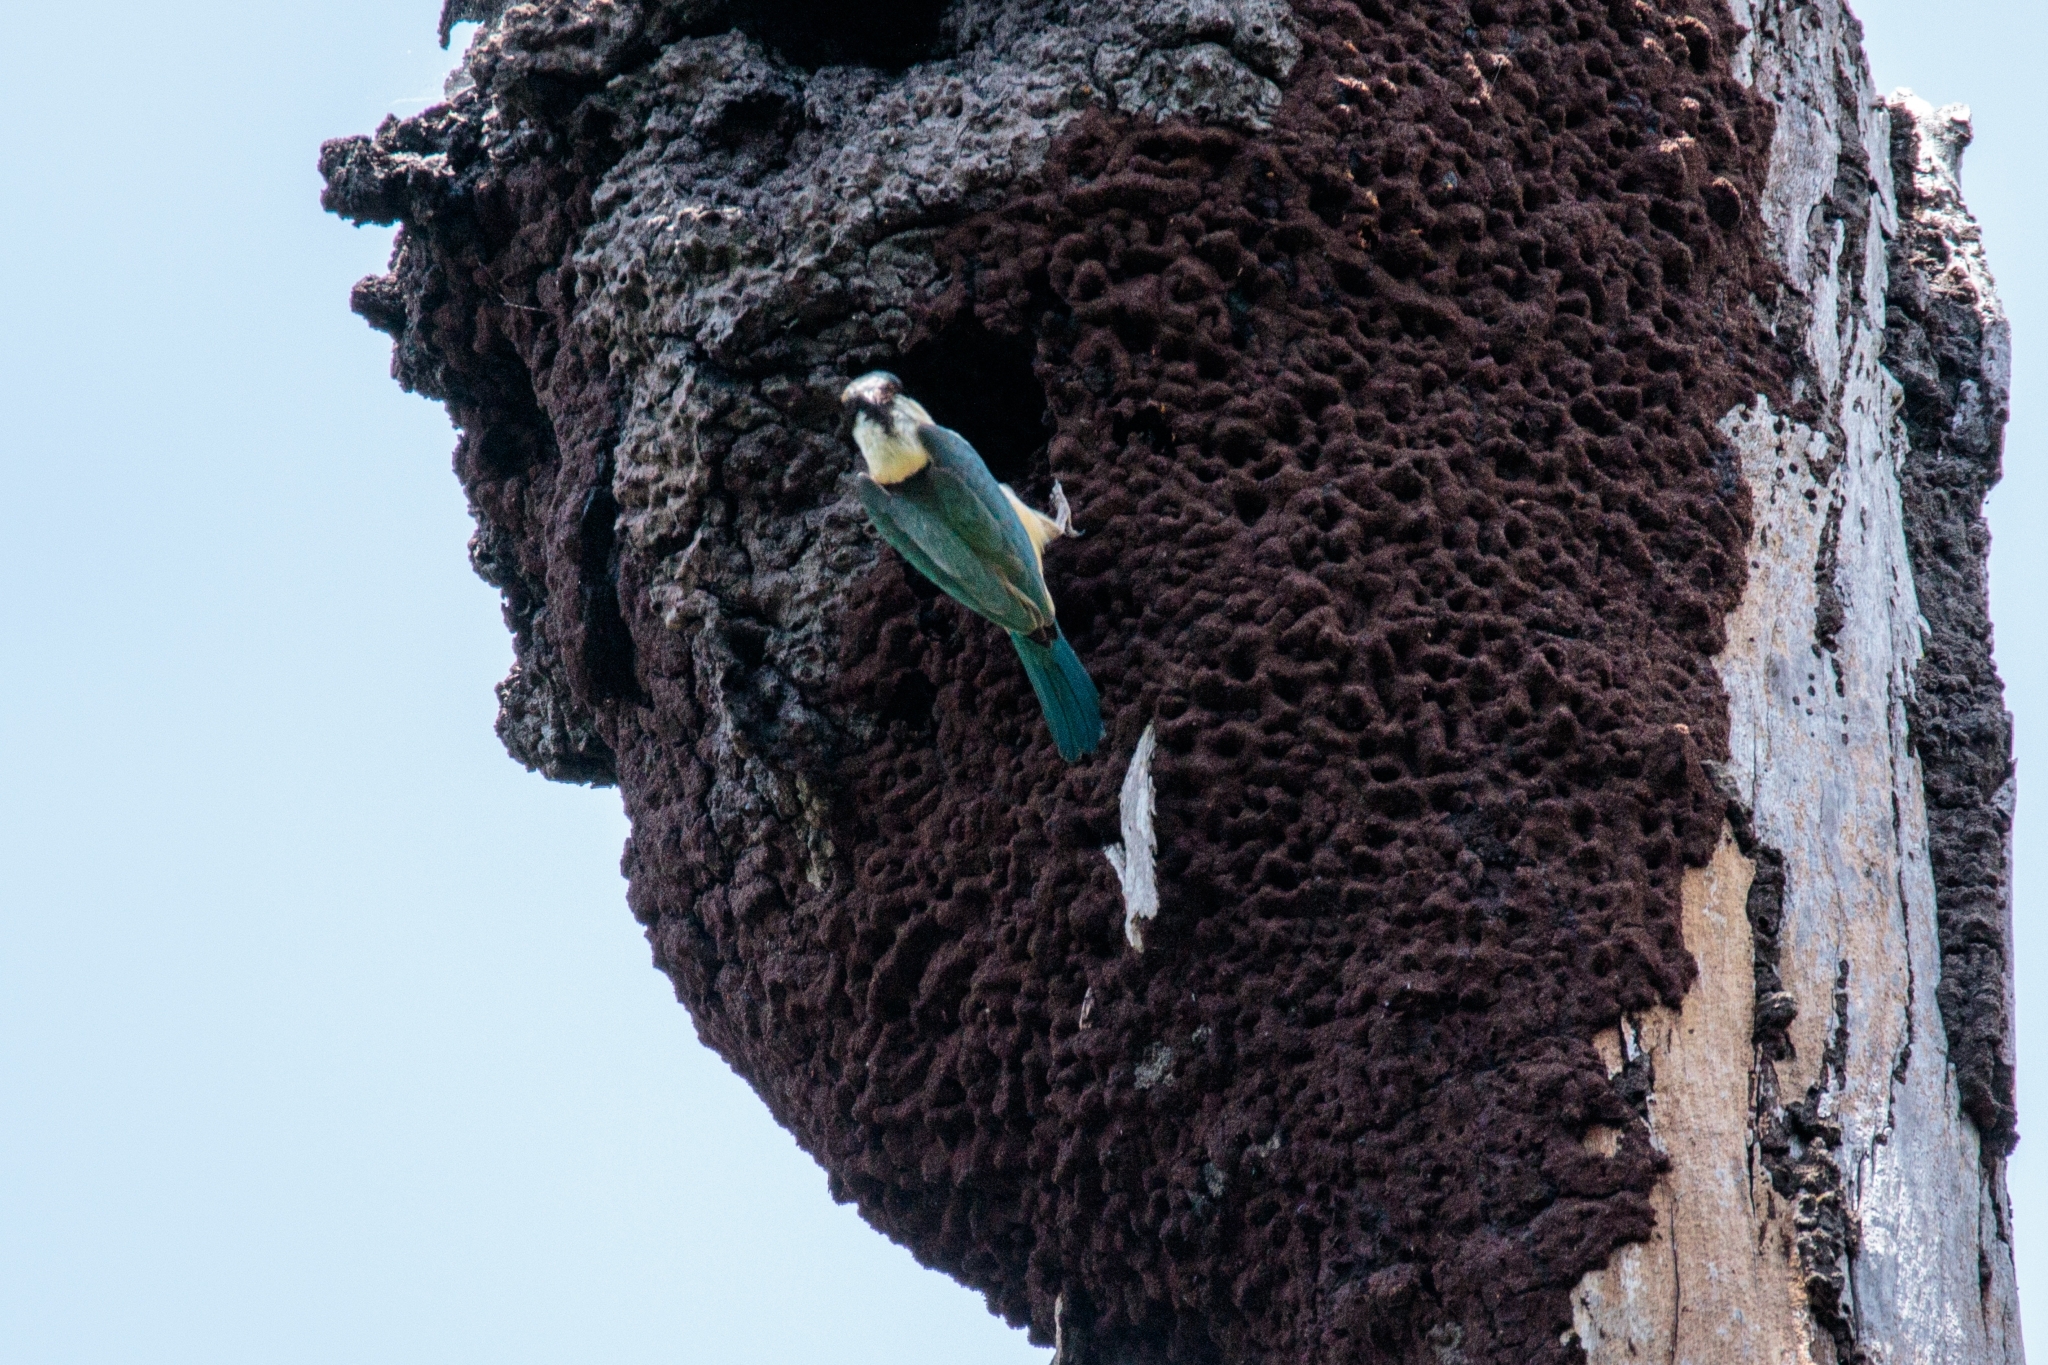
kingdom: Animalia
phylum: Chordata
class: Aves
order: Coraciiformes
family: Alcedinidae
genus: Todiramphus
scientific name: Todiramphus sanctus
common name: Sacred kingfisher
